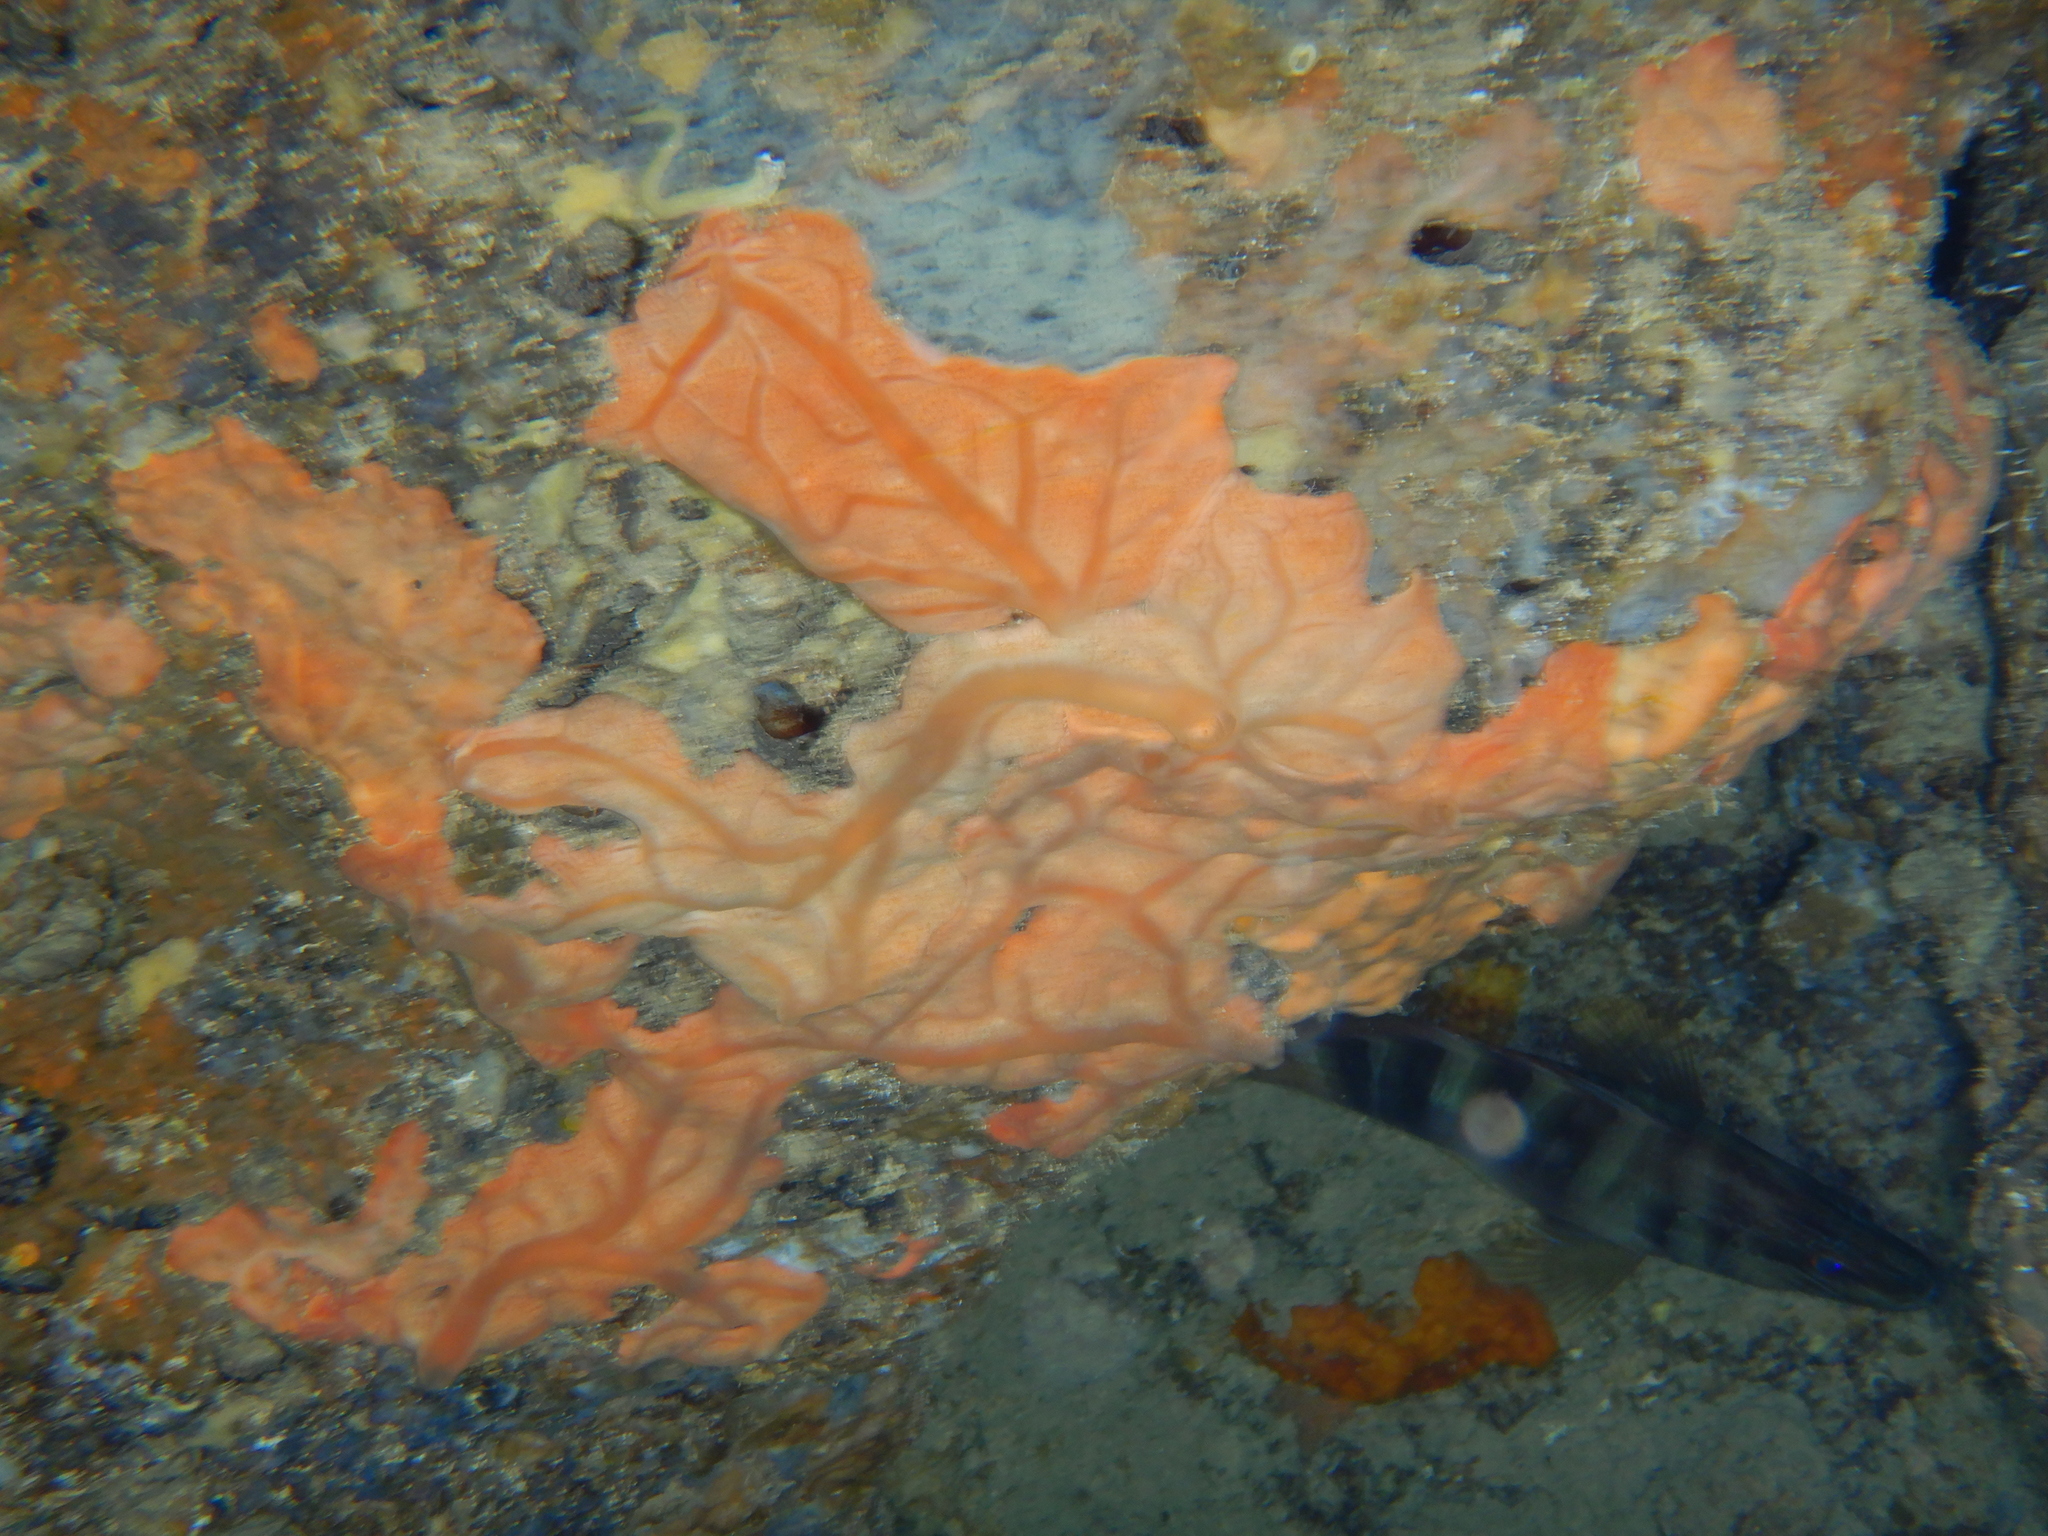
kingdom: Animalia
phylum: Porifera
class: Demospongiae
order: Clionaida
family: Spirastrellidae
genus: Spirastrella
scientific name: Spirastrella cunctatrix
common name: Encrusting orange sponge
